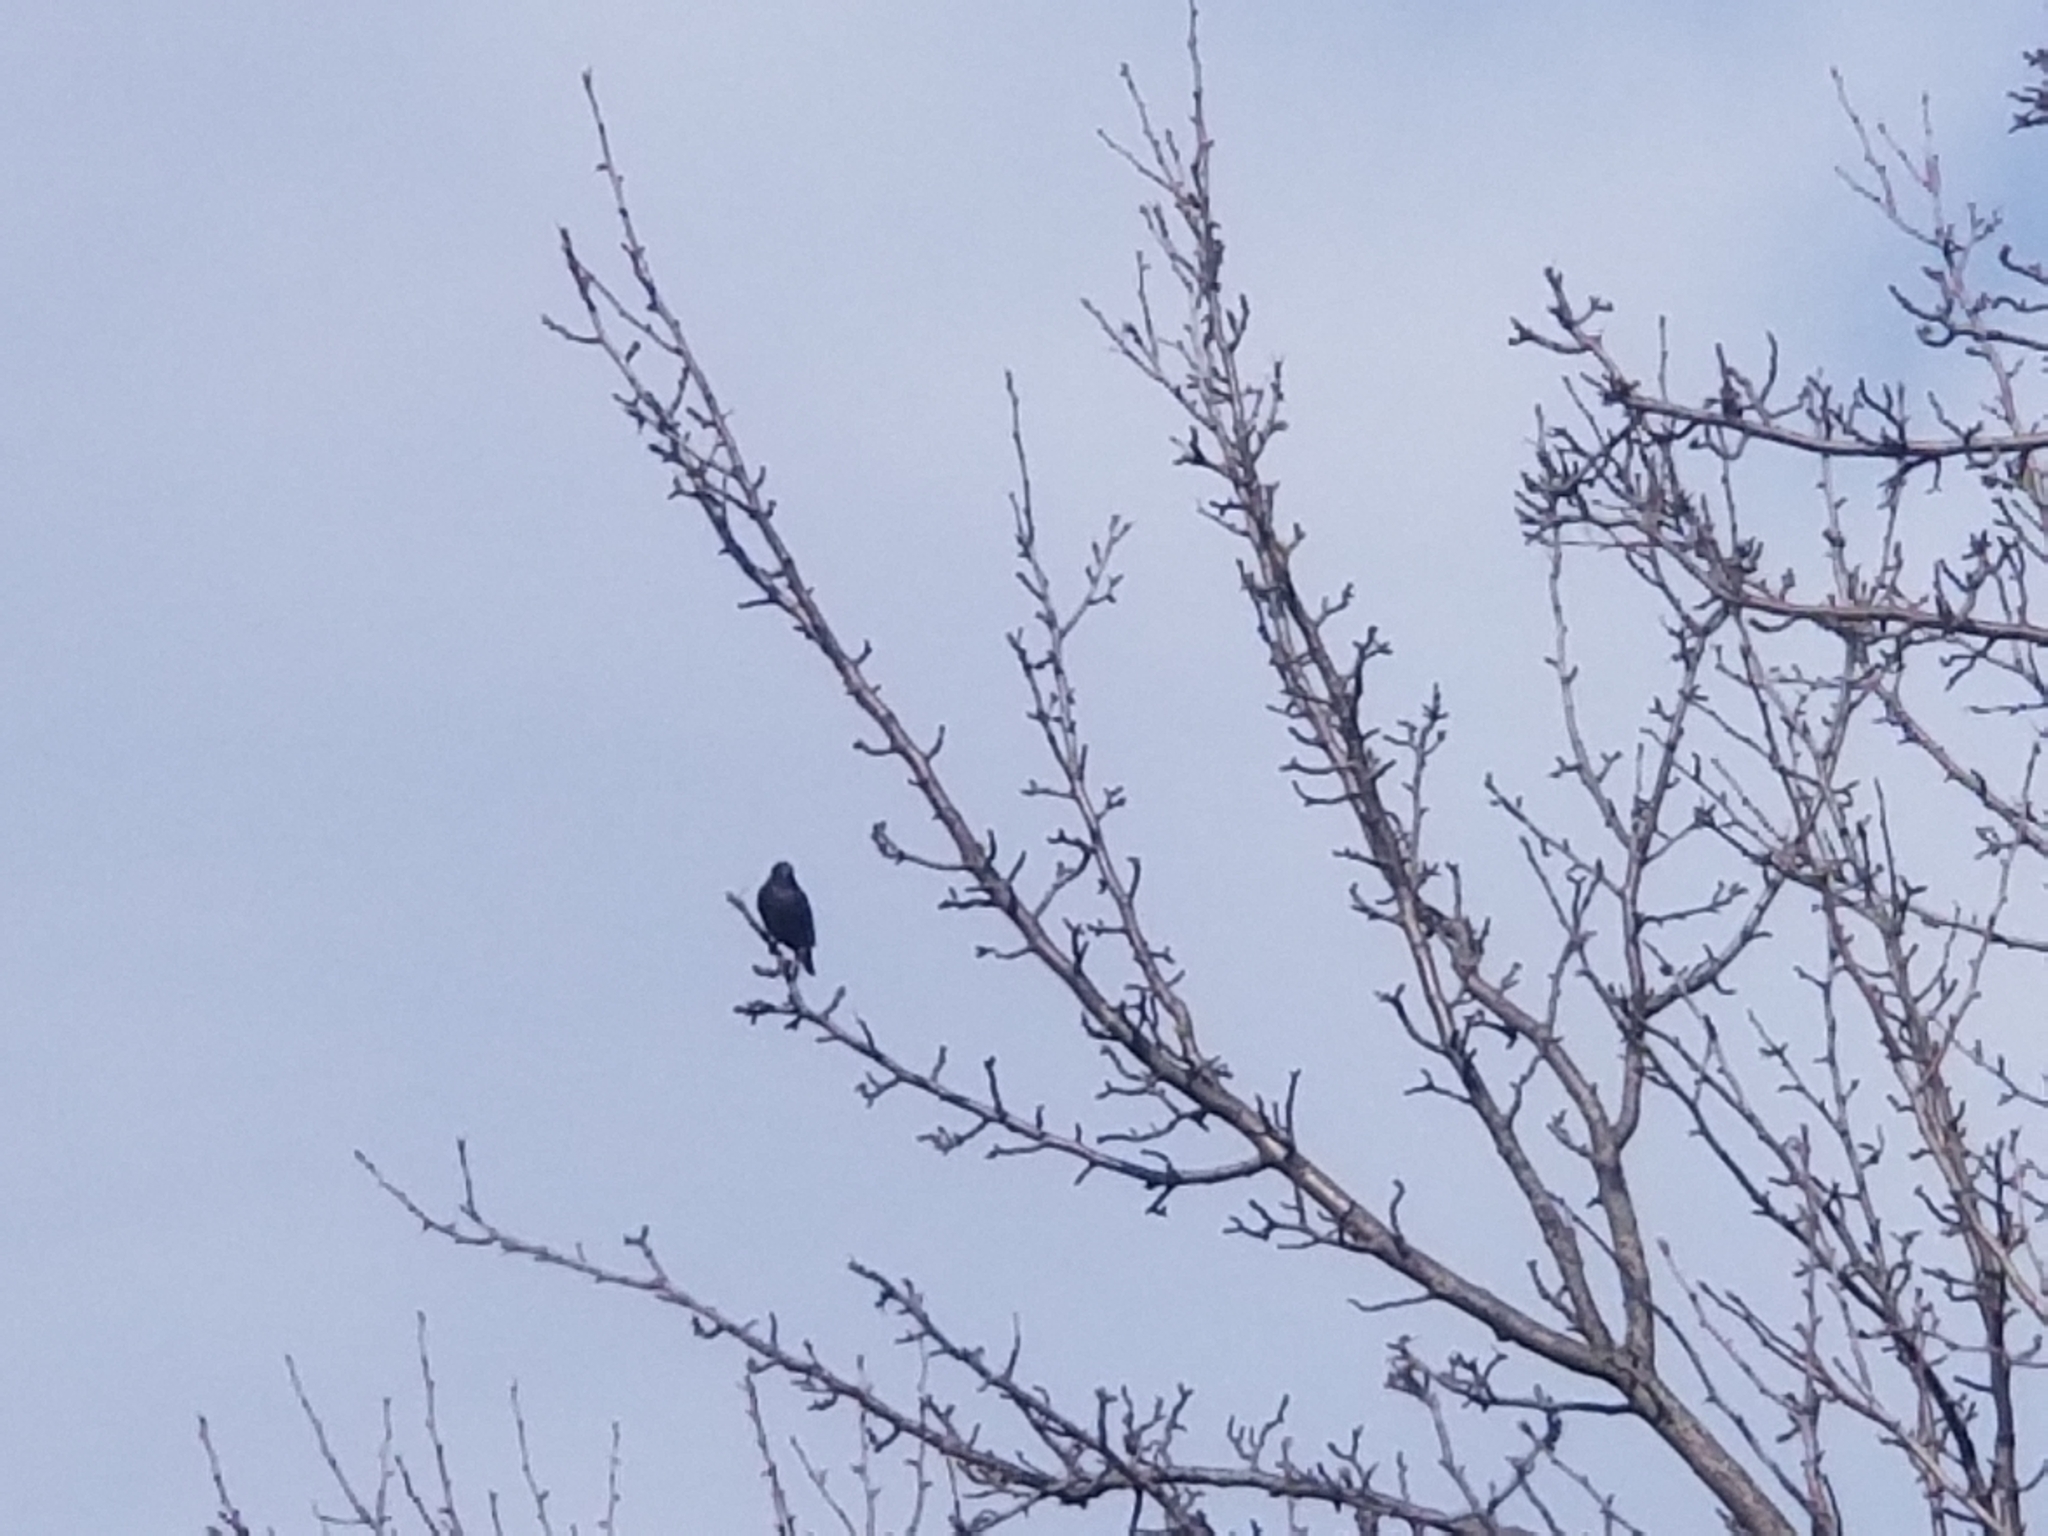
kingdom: Animalia
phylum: Chordata
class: Aves
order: Passeriformes
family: Sturnidae
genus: Sturnus
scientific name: Sturnus vulgaris
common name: Common starling
